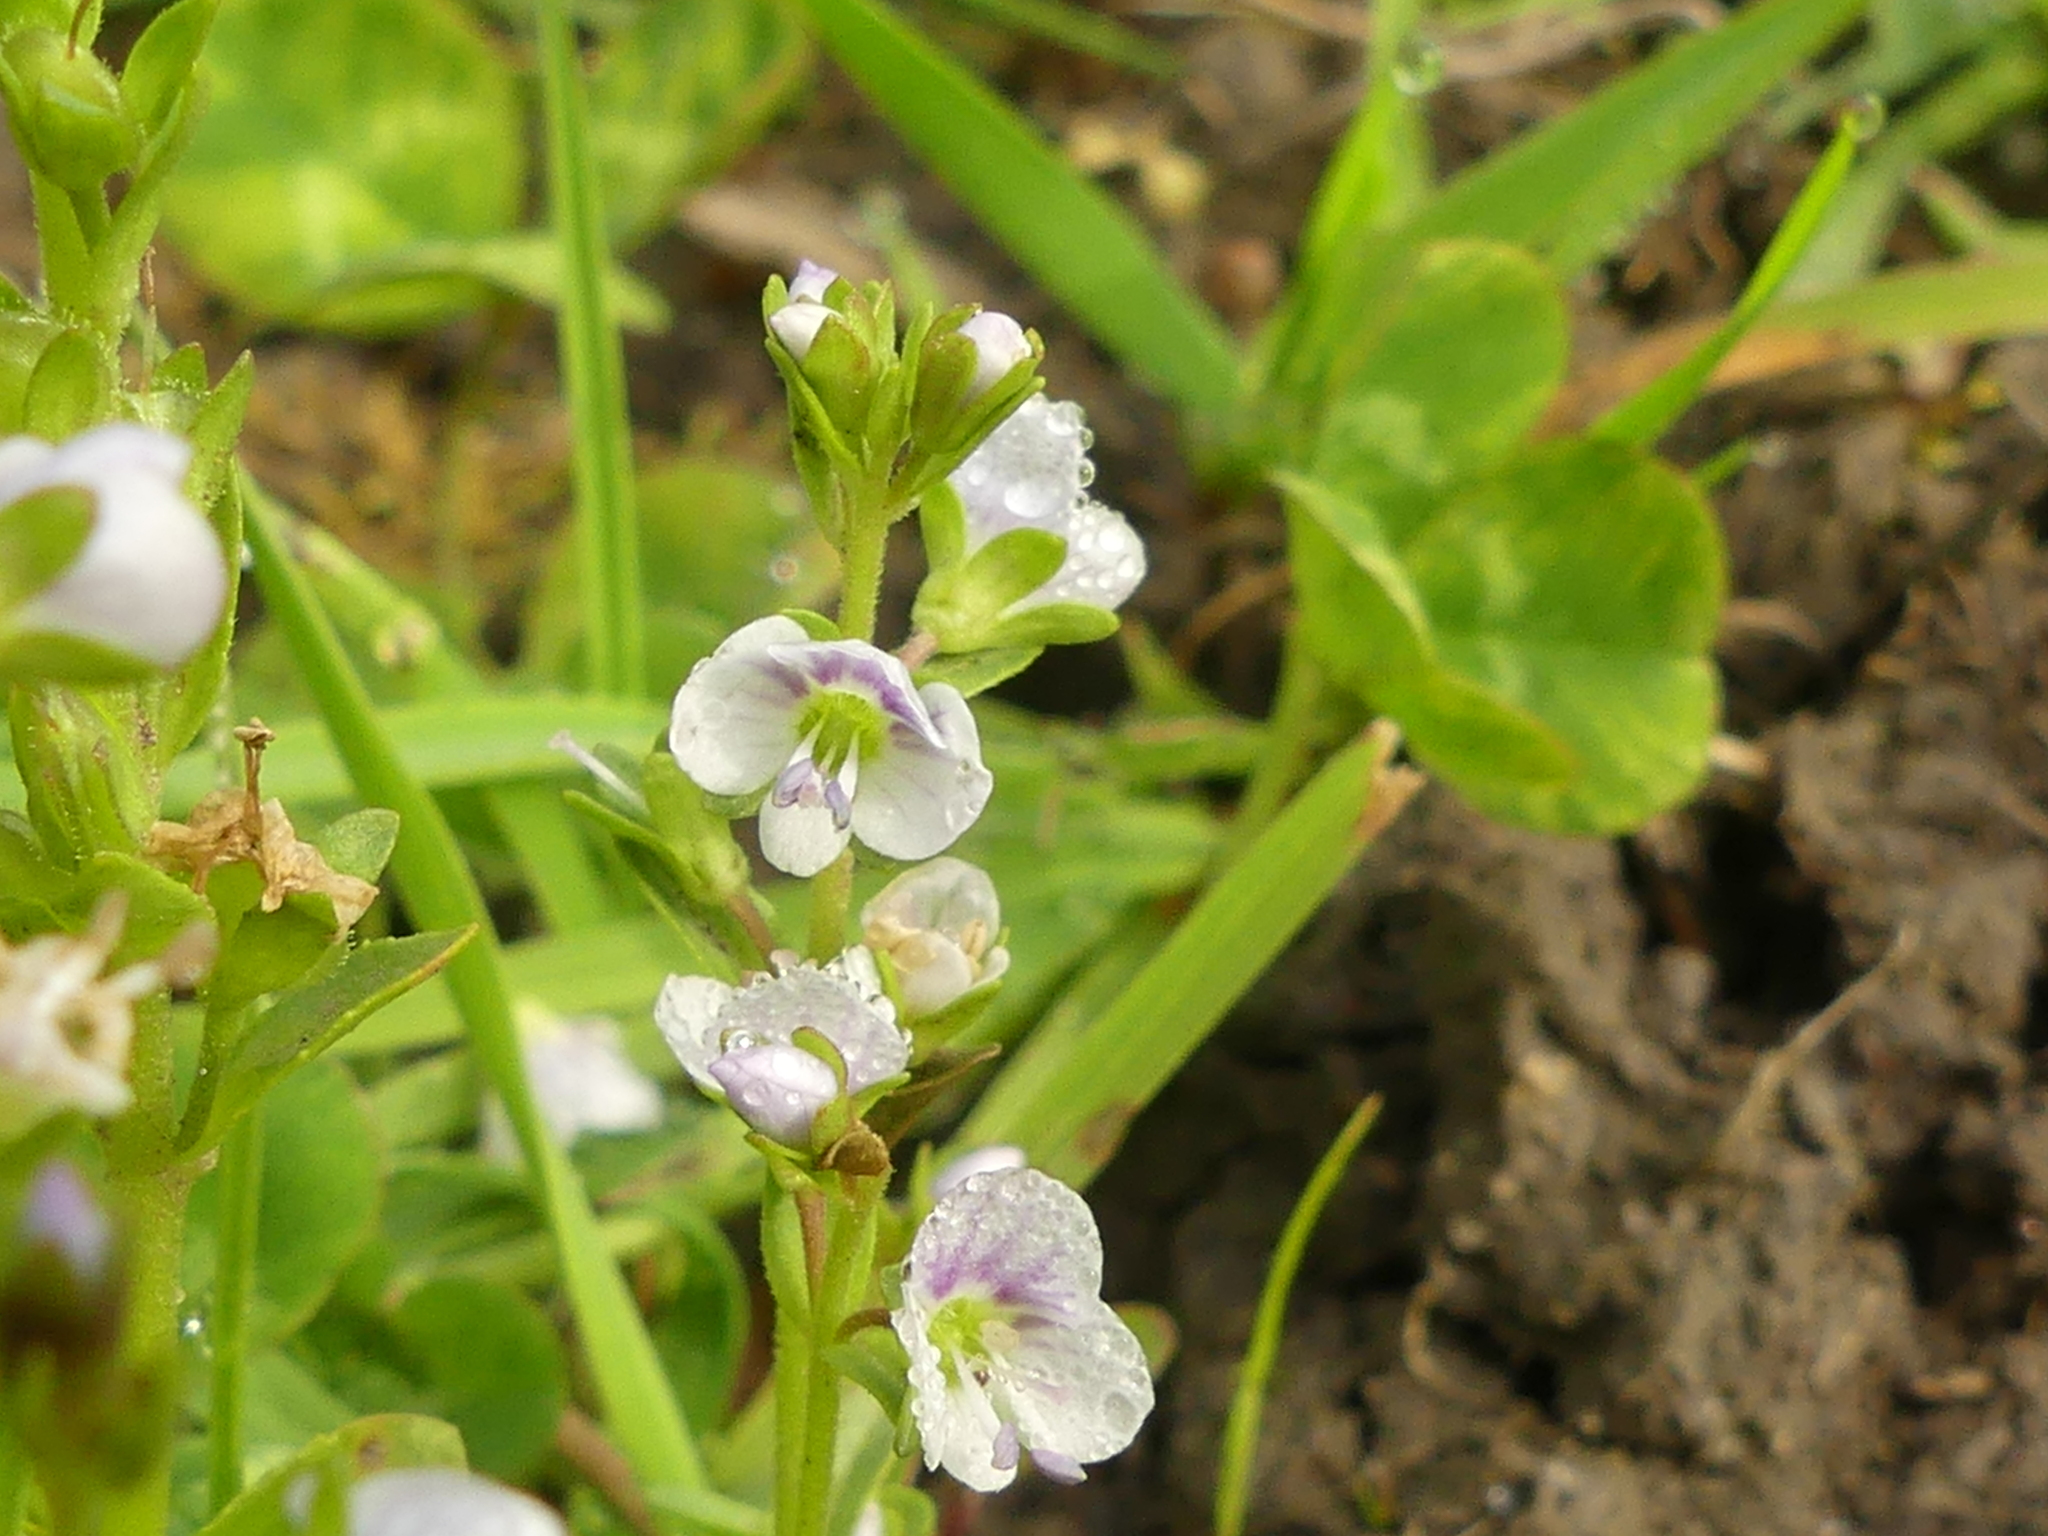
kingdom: Plantae
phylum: Tracheophyta
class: Magnoliopsida
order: Lamiales
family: Plantaginaceae
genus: Veronica
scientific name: Veronica serpyllifolia
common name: Thyme-leaved speedwell
